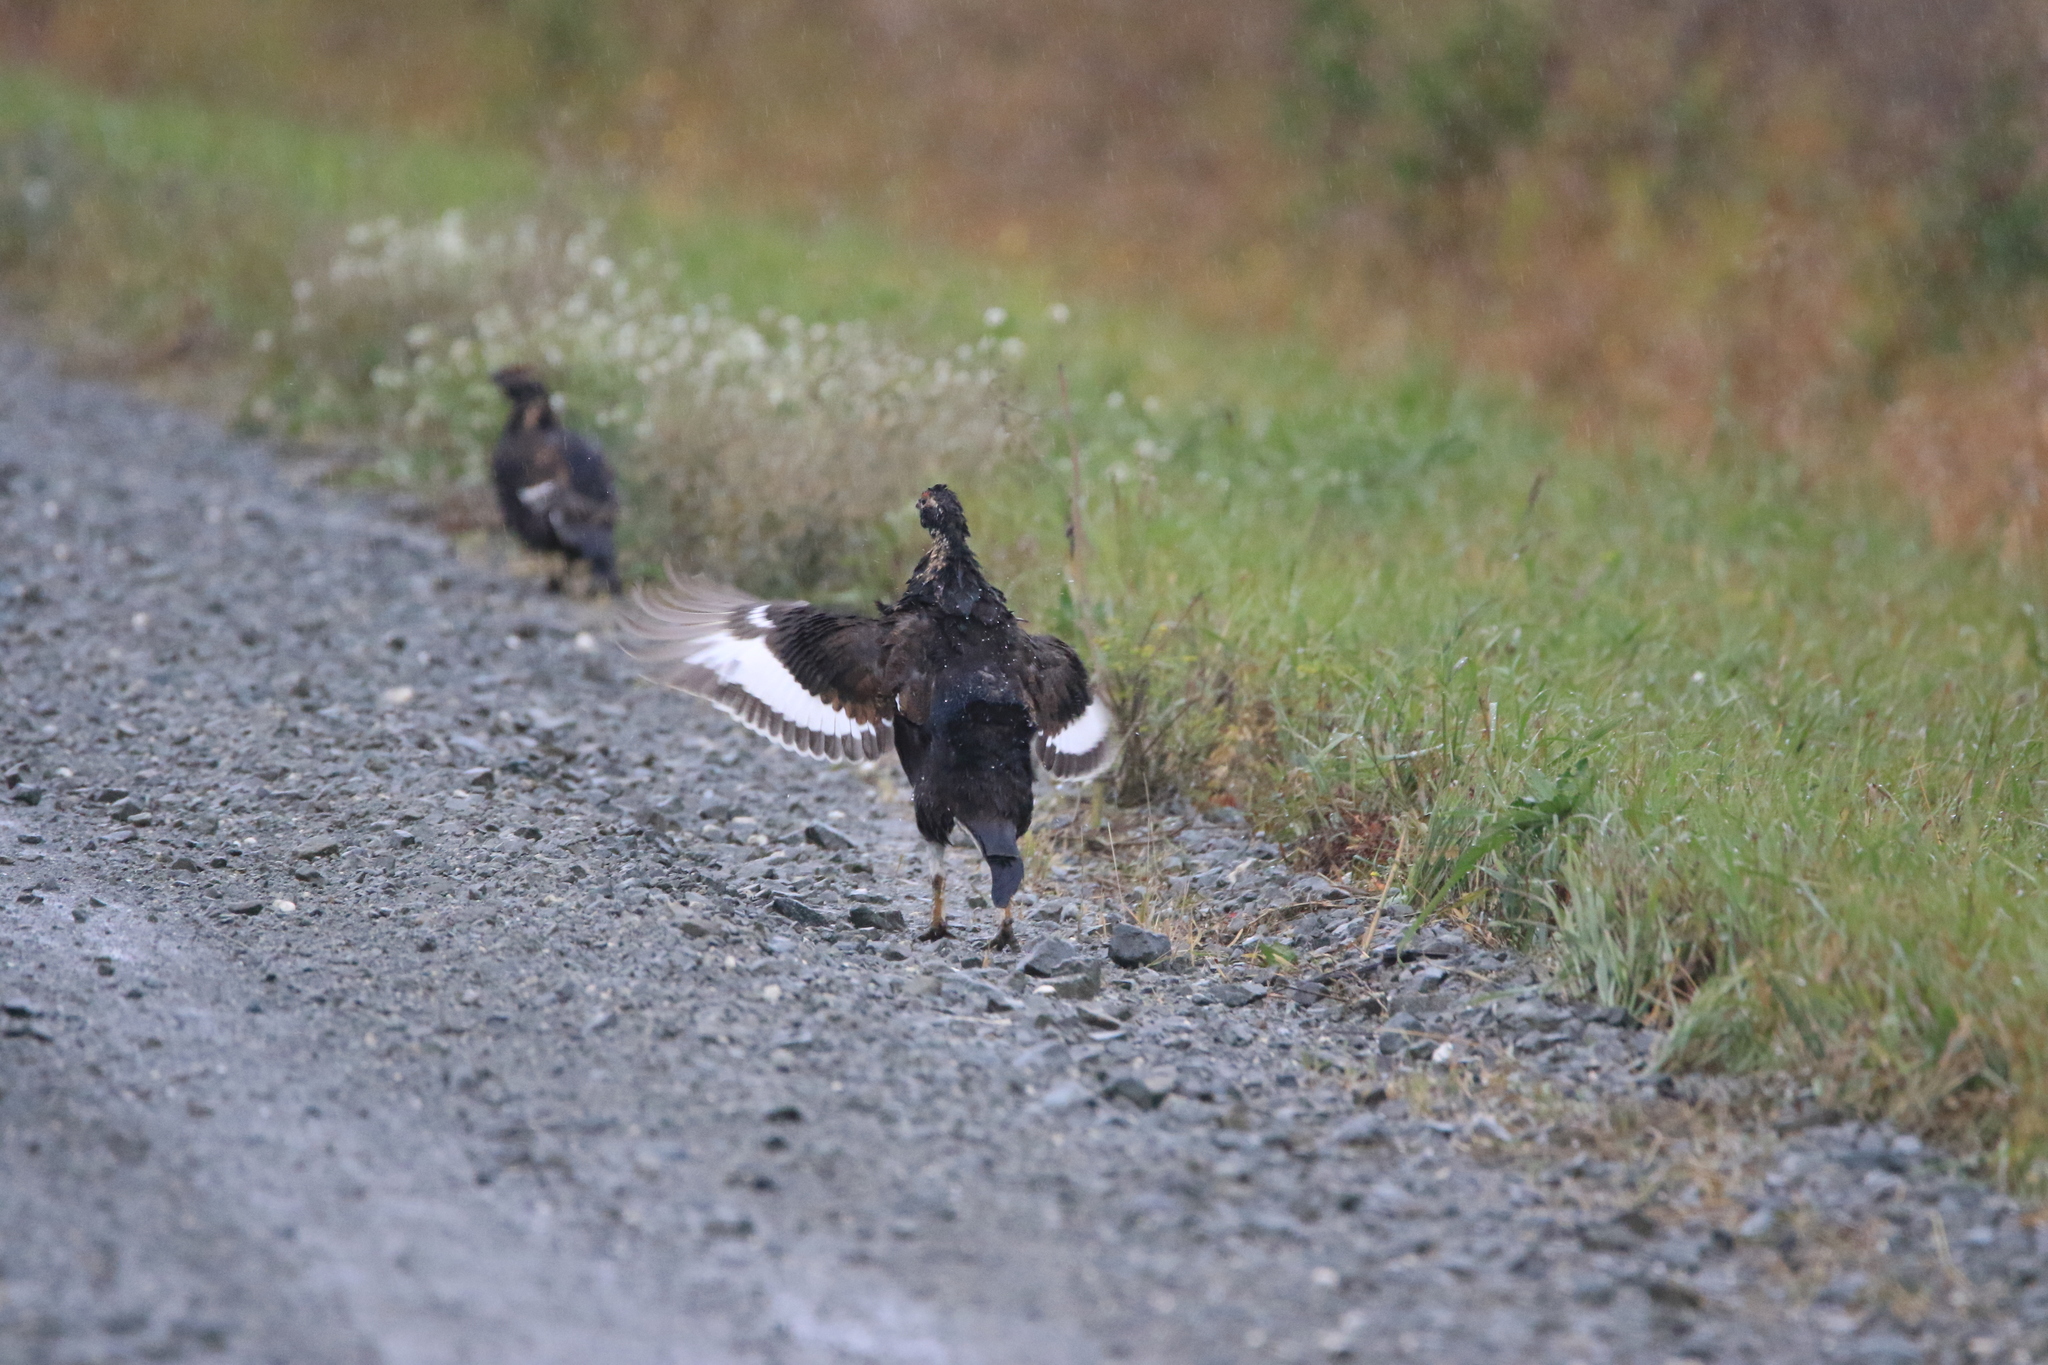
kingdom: Animalia
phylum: Chordata
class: Aves
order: Galliformes
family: Phasianidae
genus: Lyrurus
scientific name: Lyrurus tetrix
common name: Black grouse
